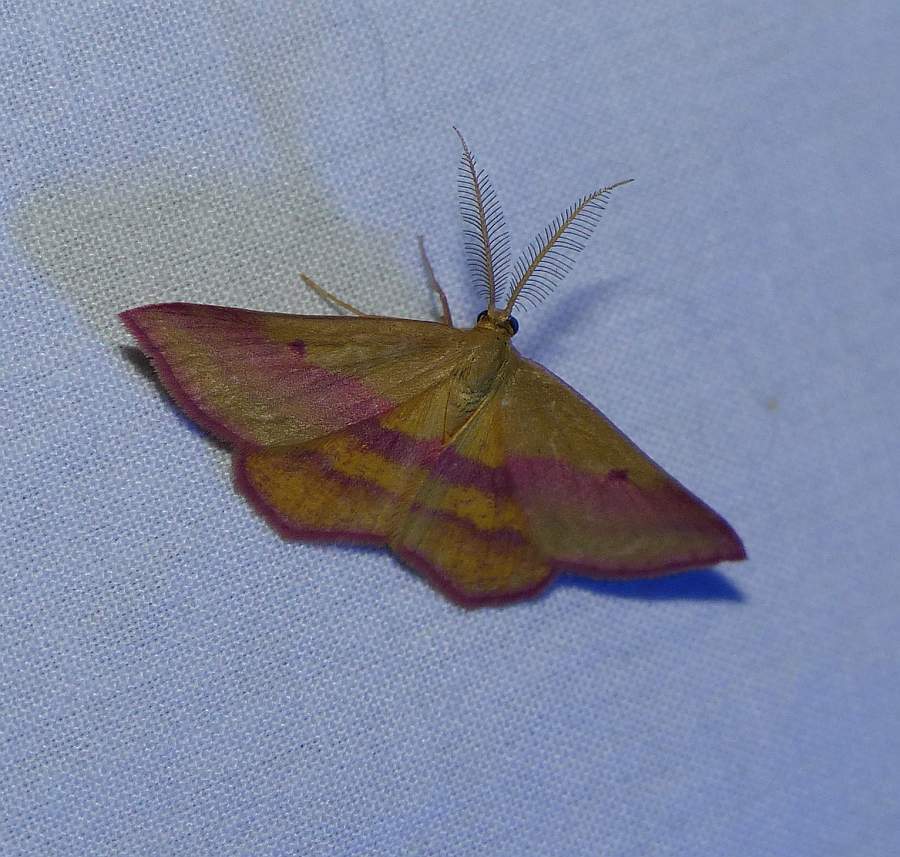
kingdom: Animalia
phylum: Arthropoda
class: Insecta
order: Lepidoptera
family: Geometridae
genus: Haematopis
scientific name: Haematopis grataria
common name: Chickweed geometer
